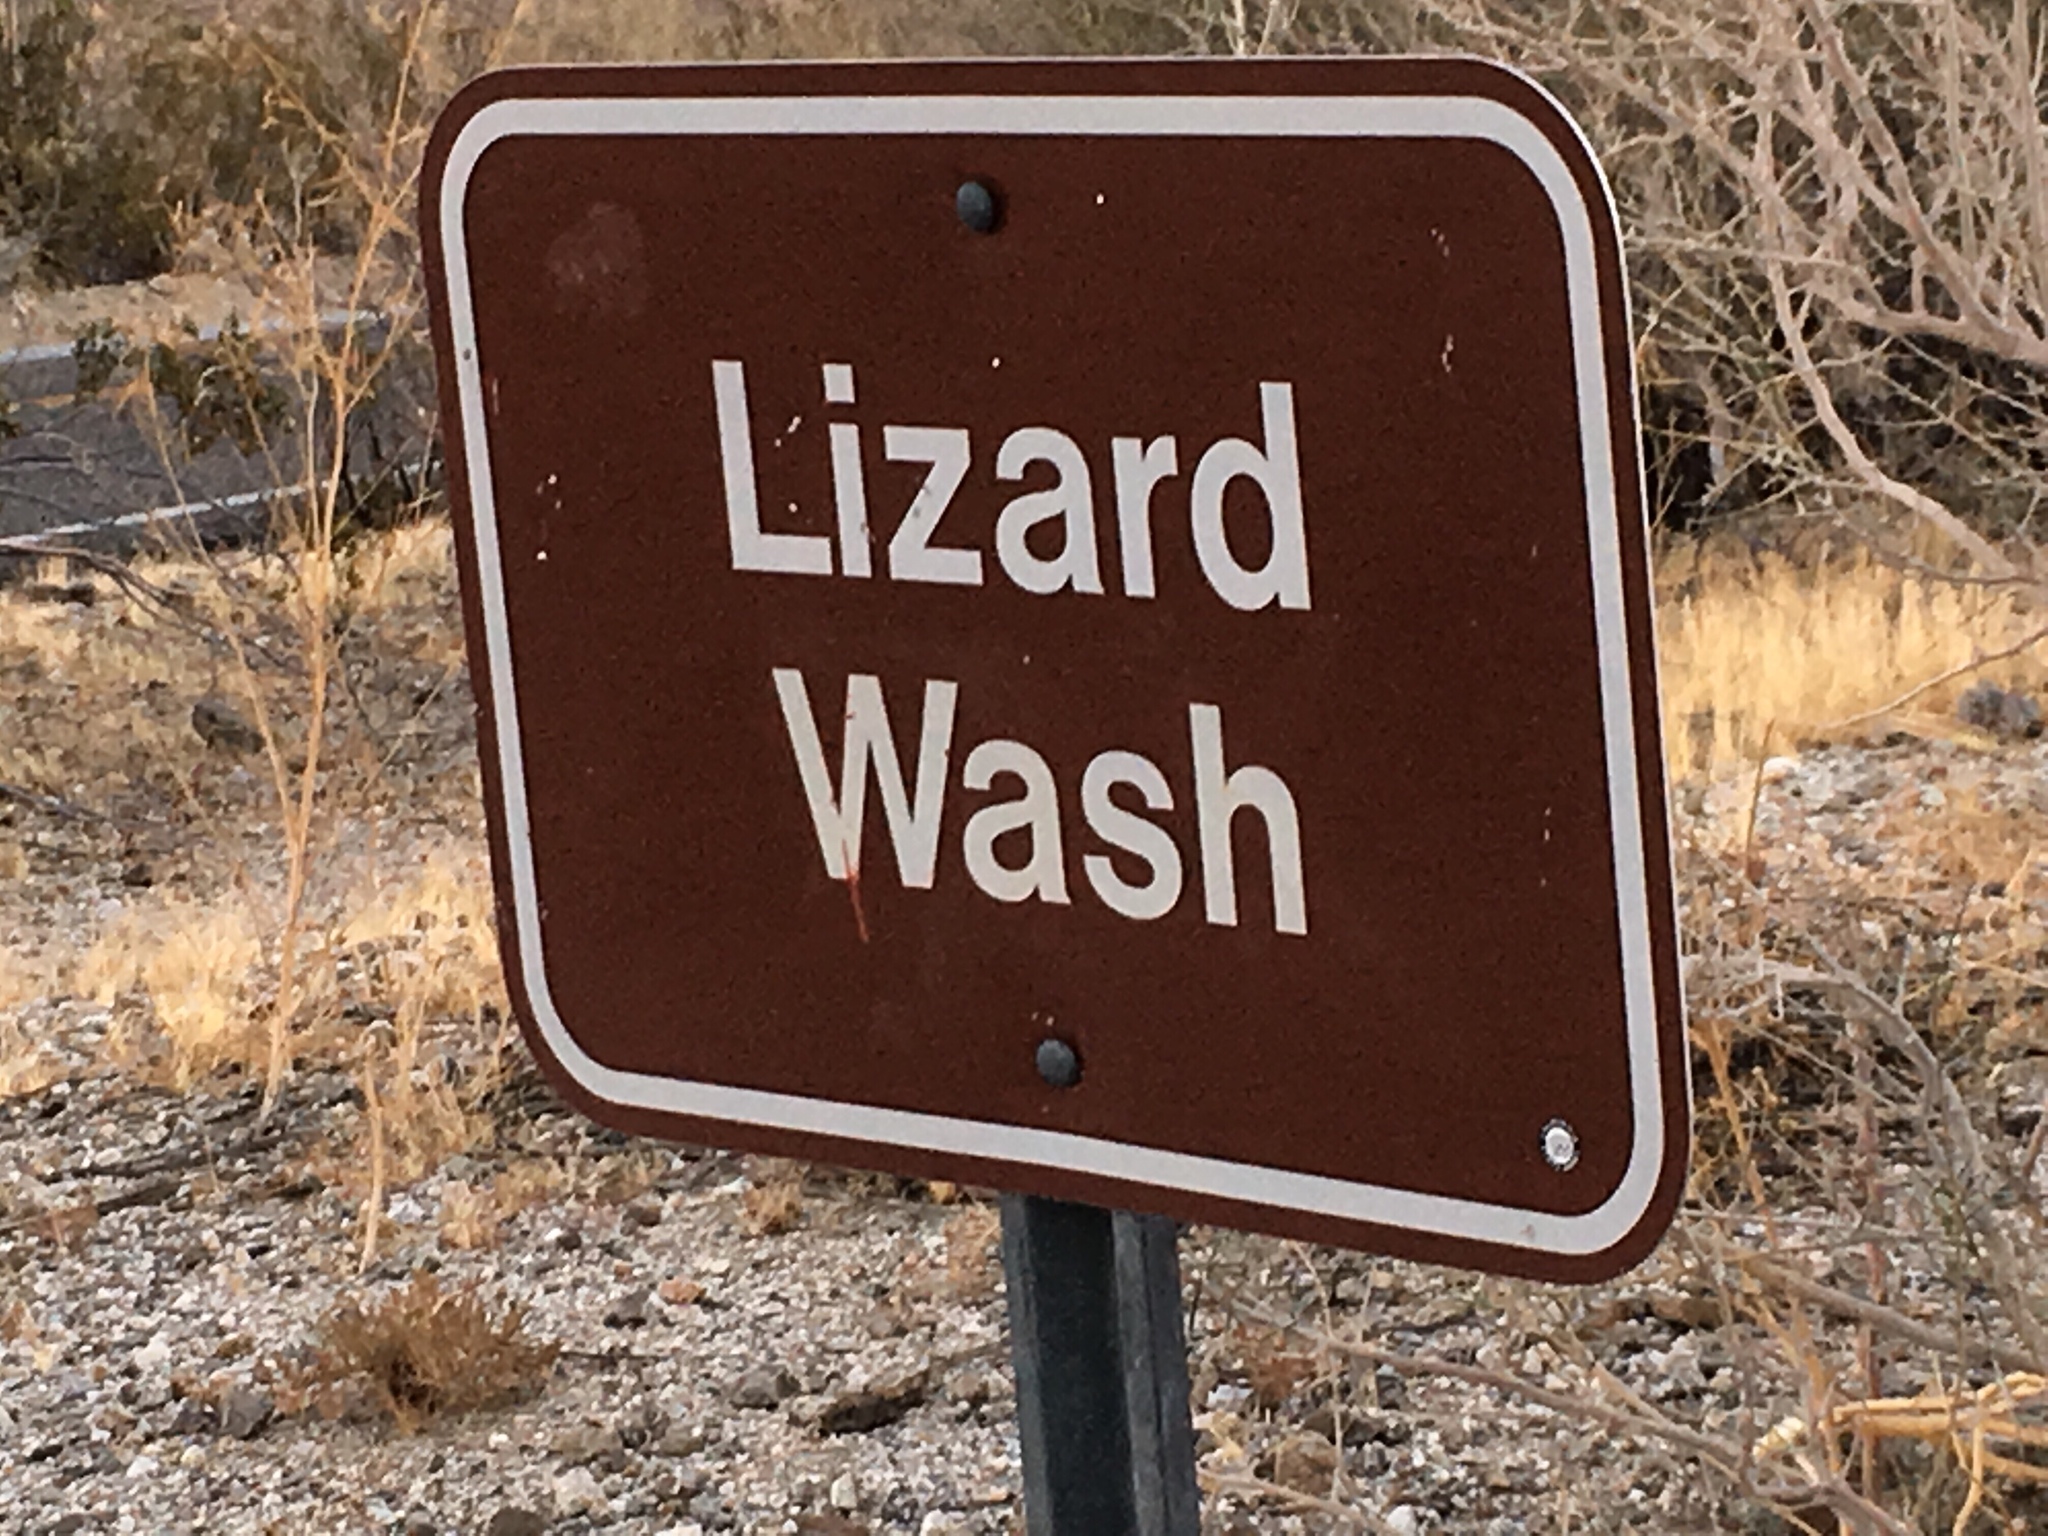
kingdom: Plantae
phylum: Tracheophyta
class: Magnoliopsida
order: Caryophyllales
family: Cactaceae
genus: Echinocereus
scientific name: Echinocereus engelmannii
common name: Engelmann's hedgehog cactus
